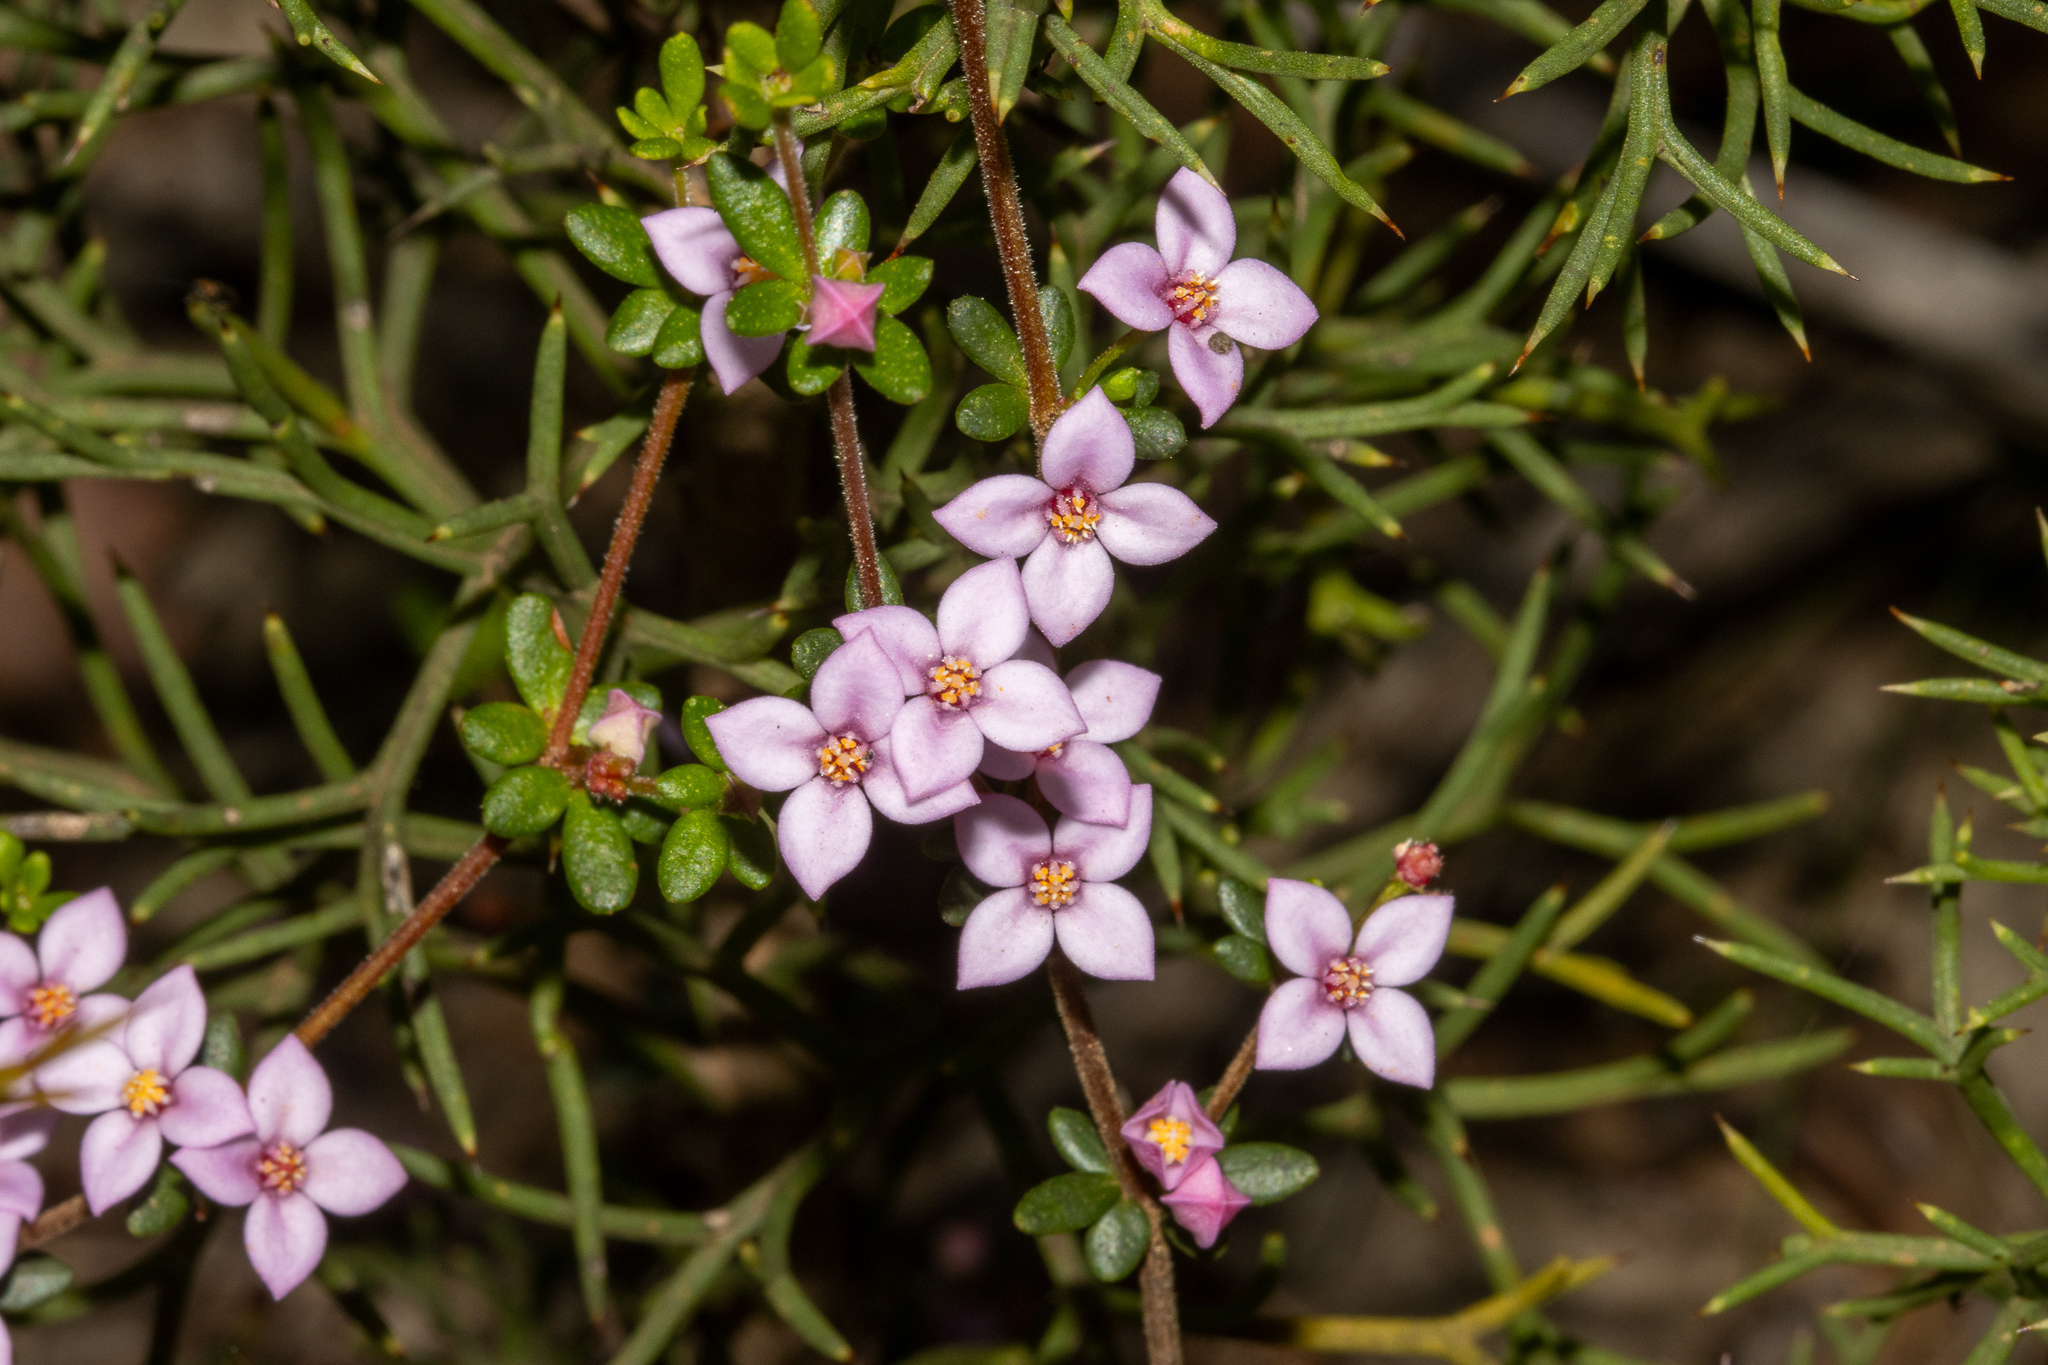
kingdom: Plantae
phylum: Tracheophyta
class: Magnoliopsida
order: Sapindales
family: Rutaceae
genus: Boronia
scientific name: Boronia edwardsii
